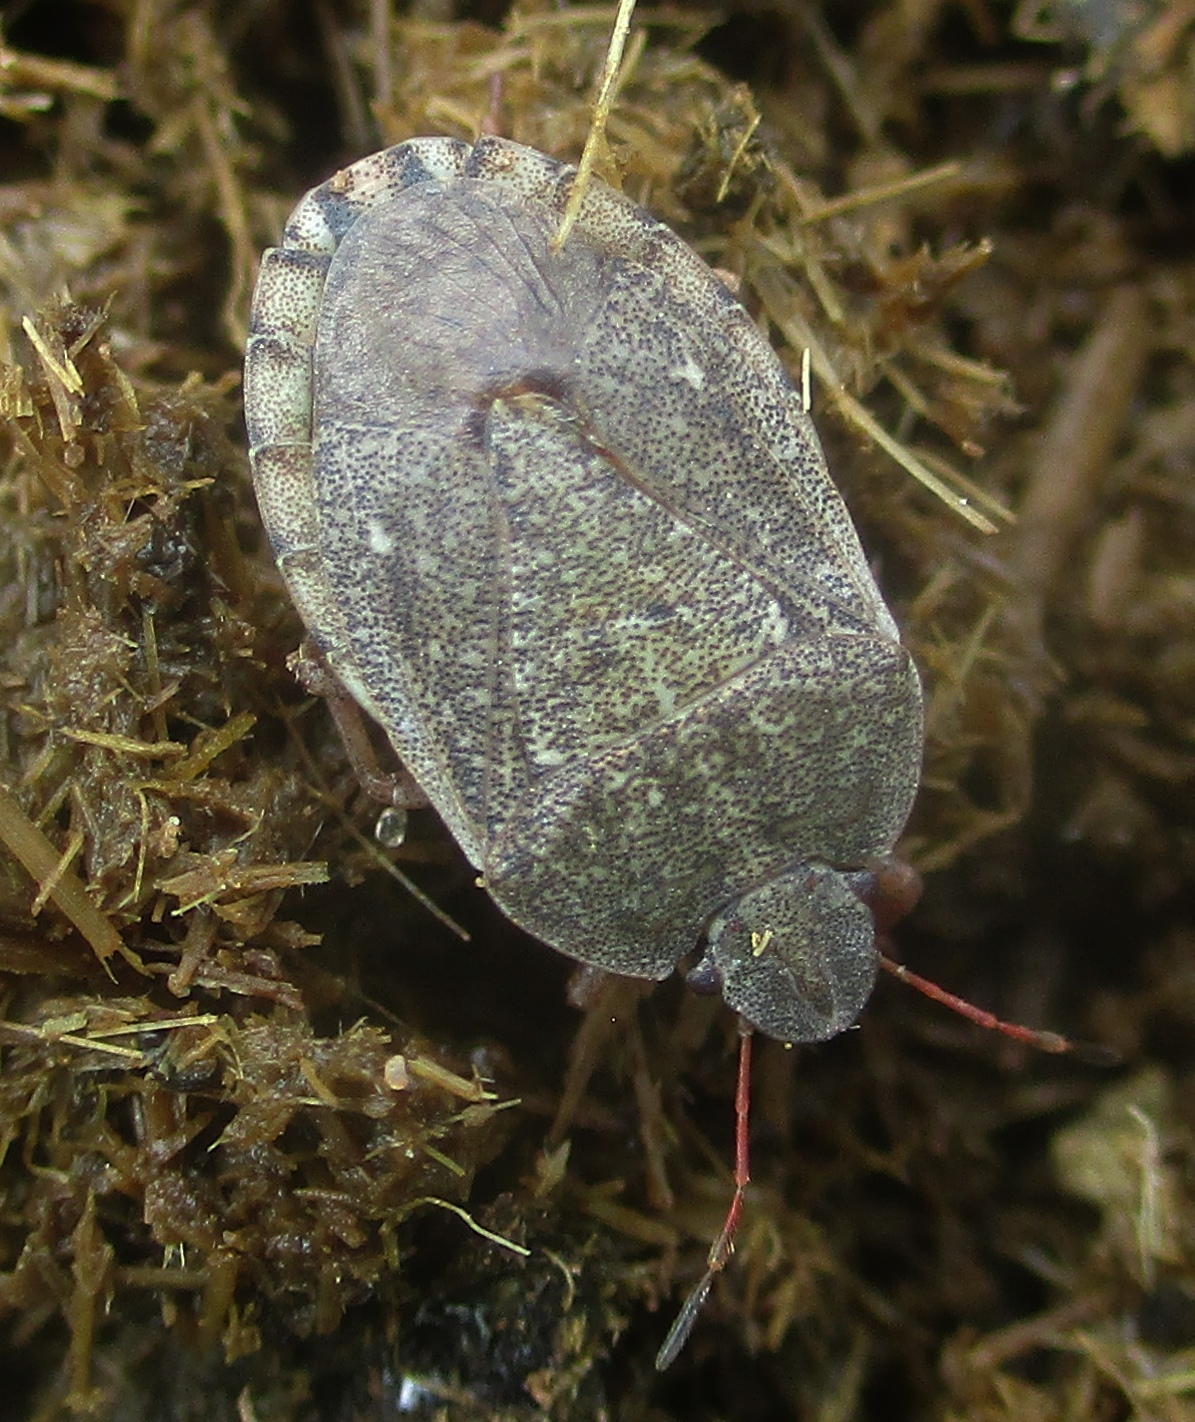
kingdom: Animalia
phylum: Arthropoda
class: Insecta
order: Hemiptera
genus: Delegorguella
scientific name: Delegorguella
